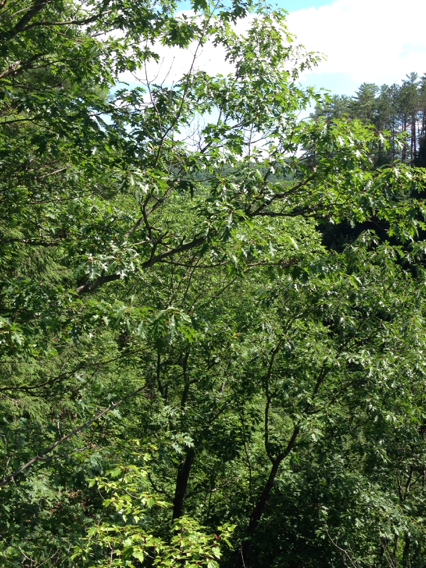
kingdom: Plantae
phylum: Tracheophyta
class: Magnoliopsida
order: Fagales
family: Fagaceae
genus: Quercus
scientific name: Quercus rubra
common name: Red oak
